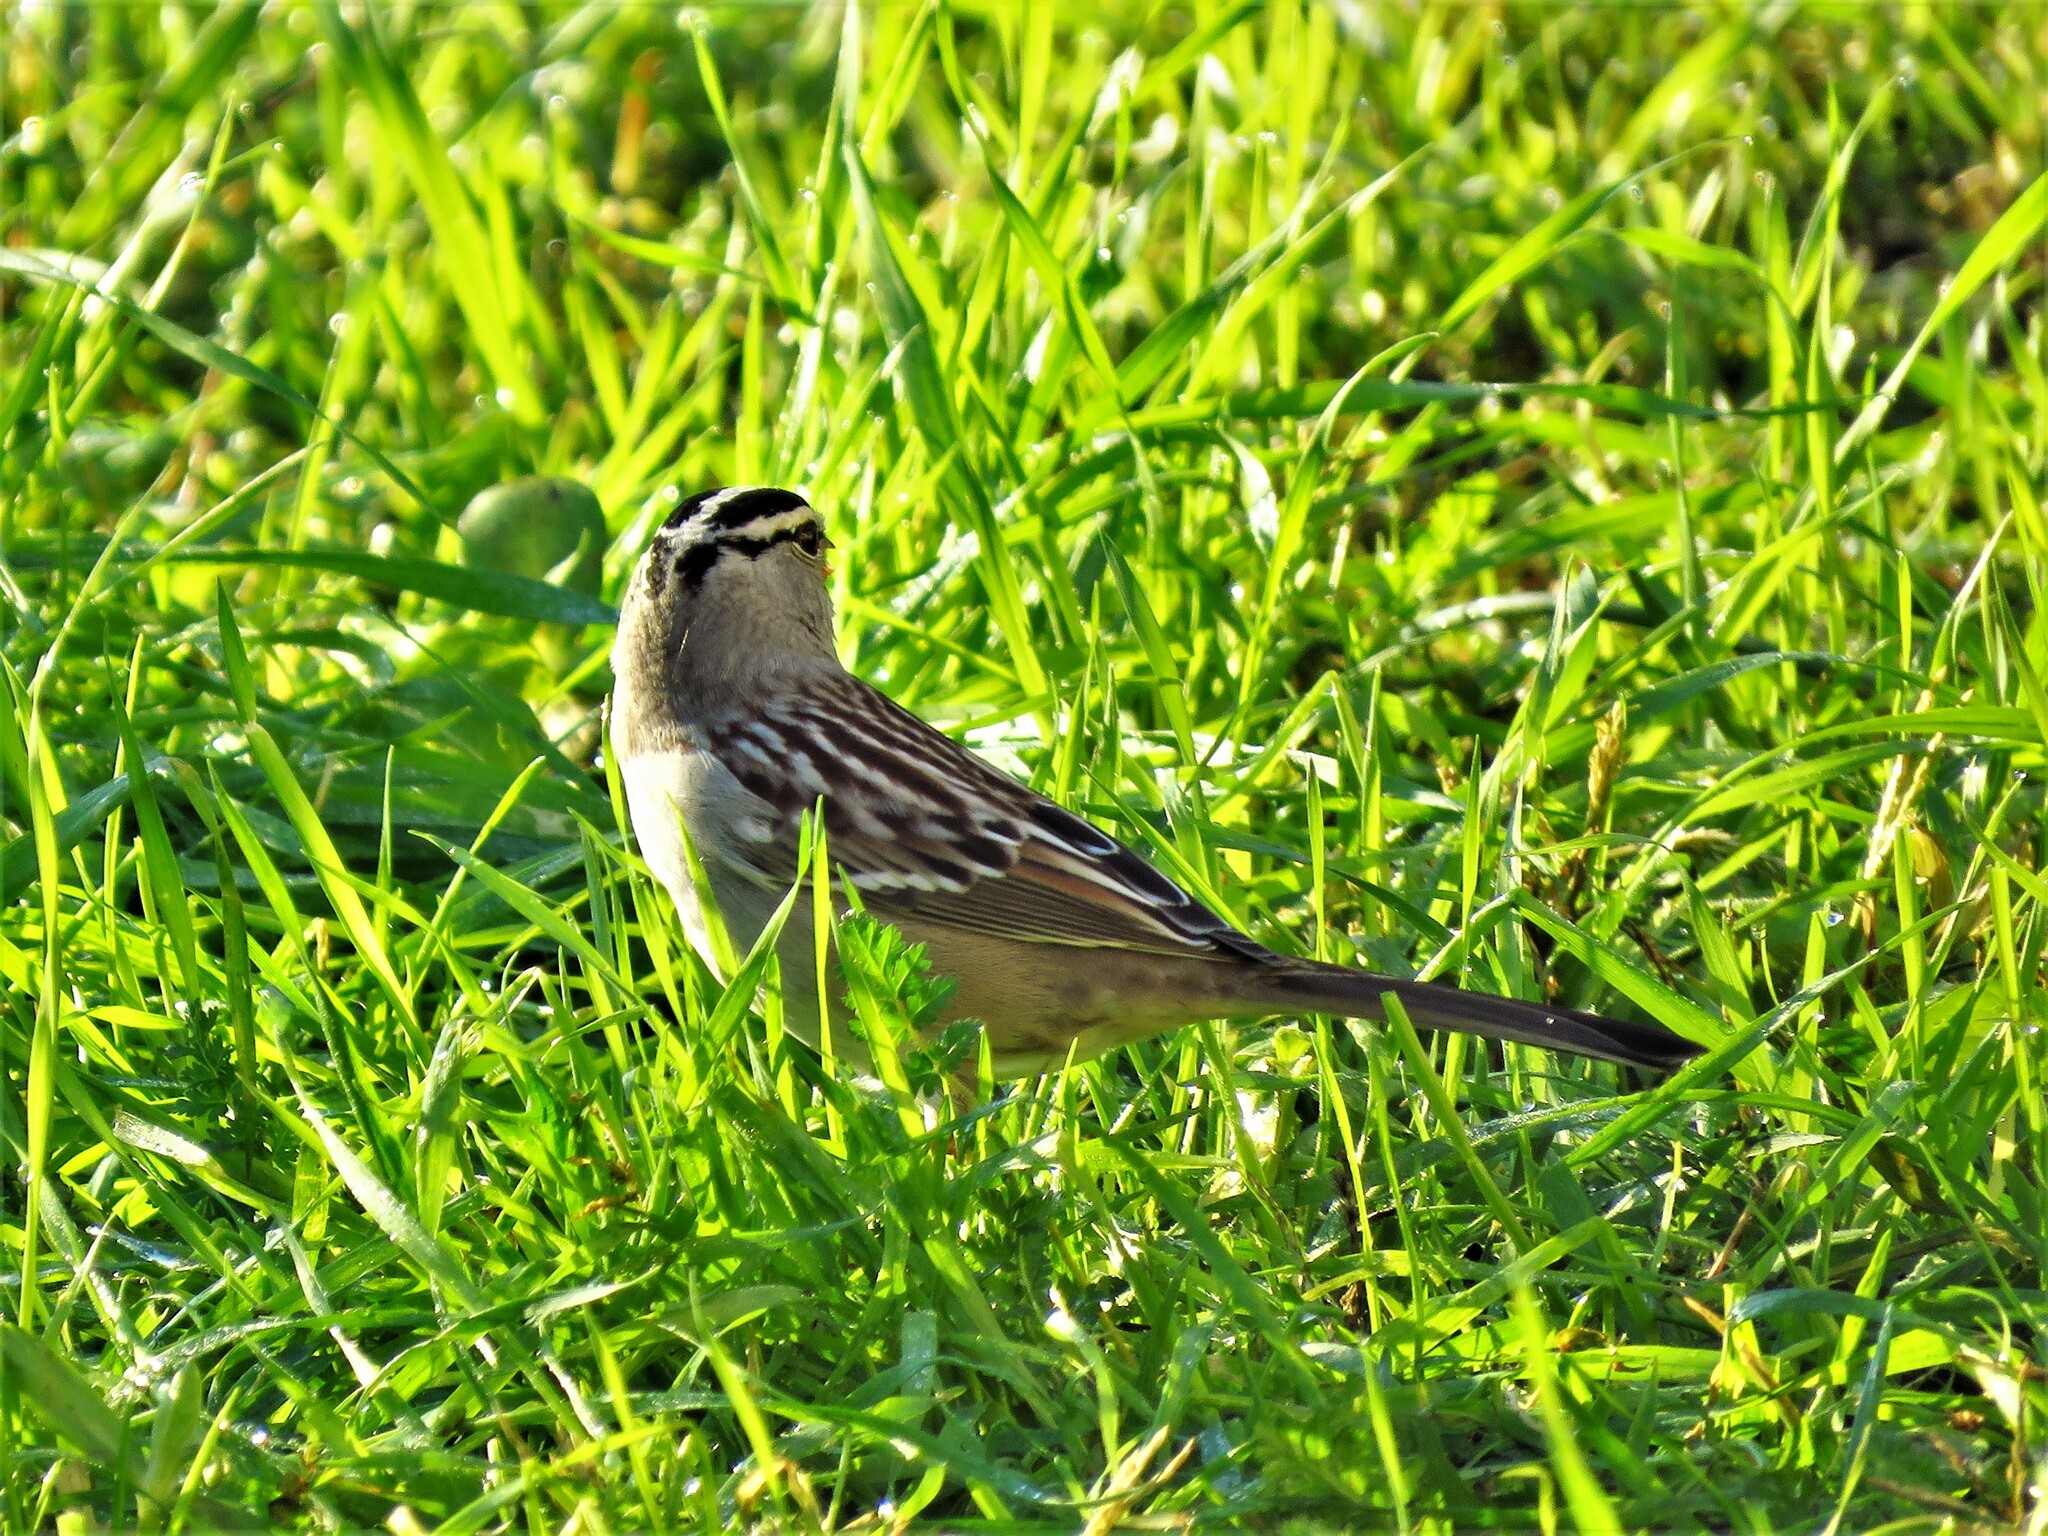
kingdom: Animalia
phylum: Chordata
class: Aves
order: Passeriformes
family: Passerellidae
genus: Zonotrichia
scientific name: Zonotrichia leucophrys
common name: White-crowned sparrow
